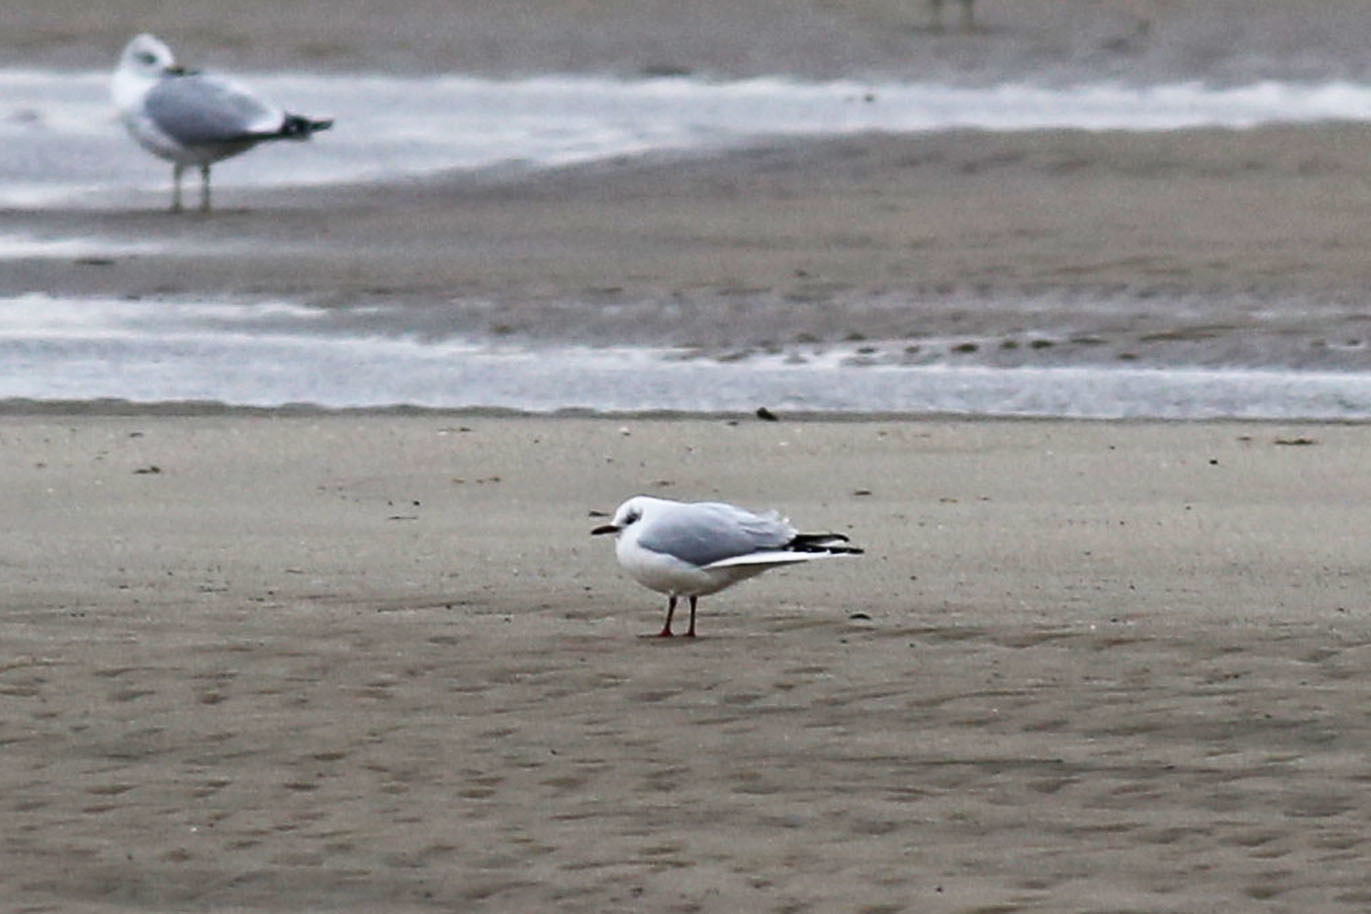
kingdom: Animalia
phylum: Chordata
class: Aves
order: Charadriiformes
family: Laridae
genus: Chroicocephalus
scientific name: Chroicocephalus ridibundus
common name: Black-headed gull
